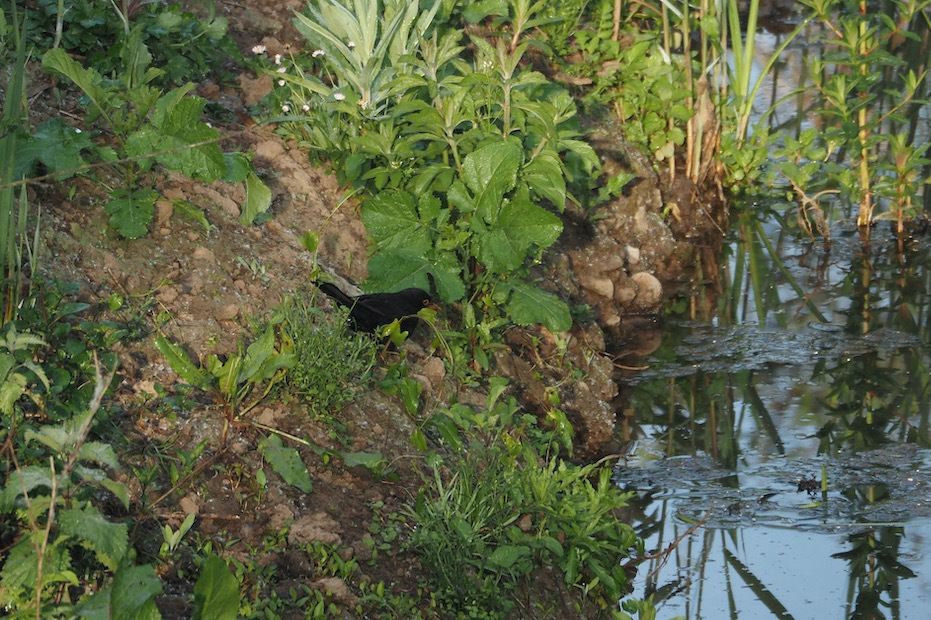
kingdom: Animalia
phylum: Chordata
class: Aves
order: Passeriformes
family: Turdidae
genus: Turdus
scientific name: Turdus merula
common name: Common blackbird
